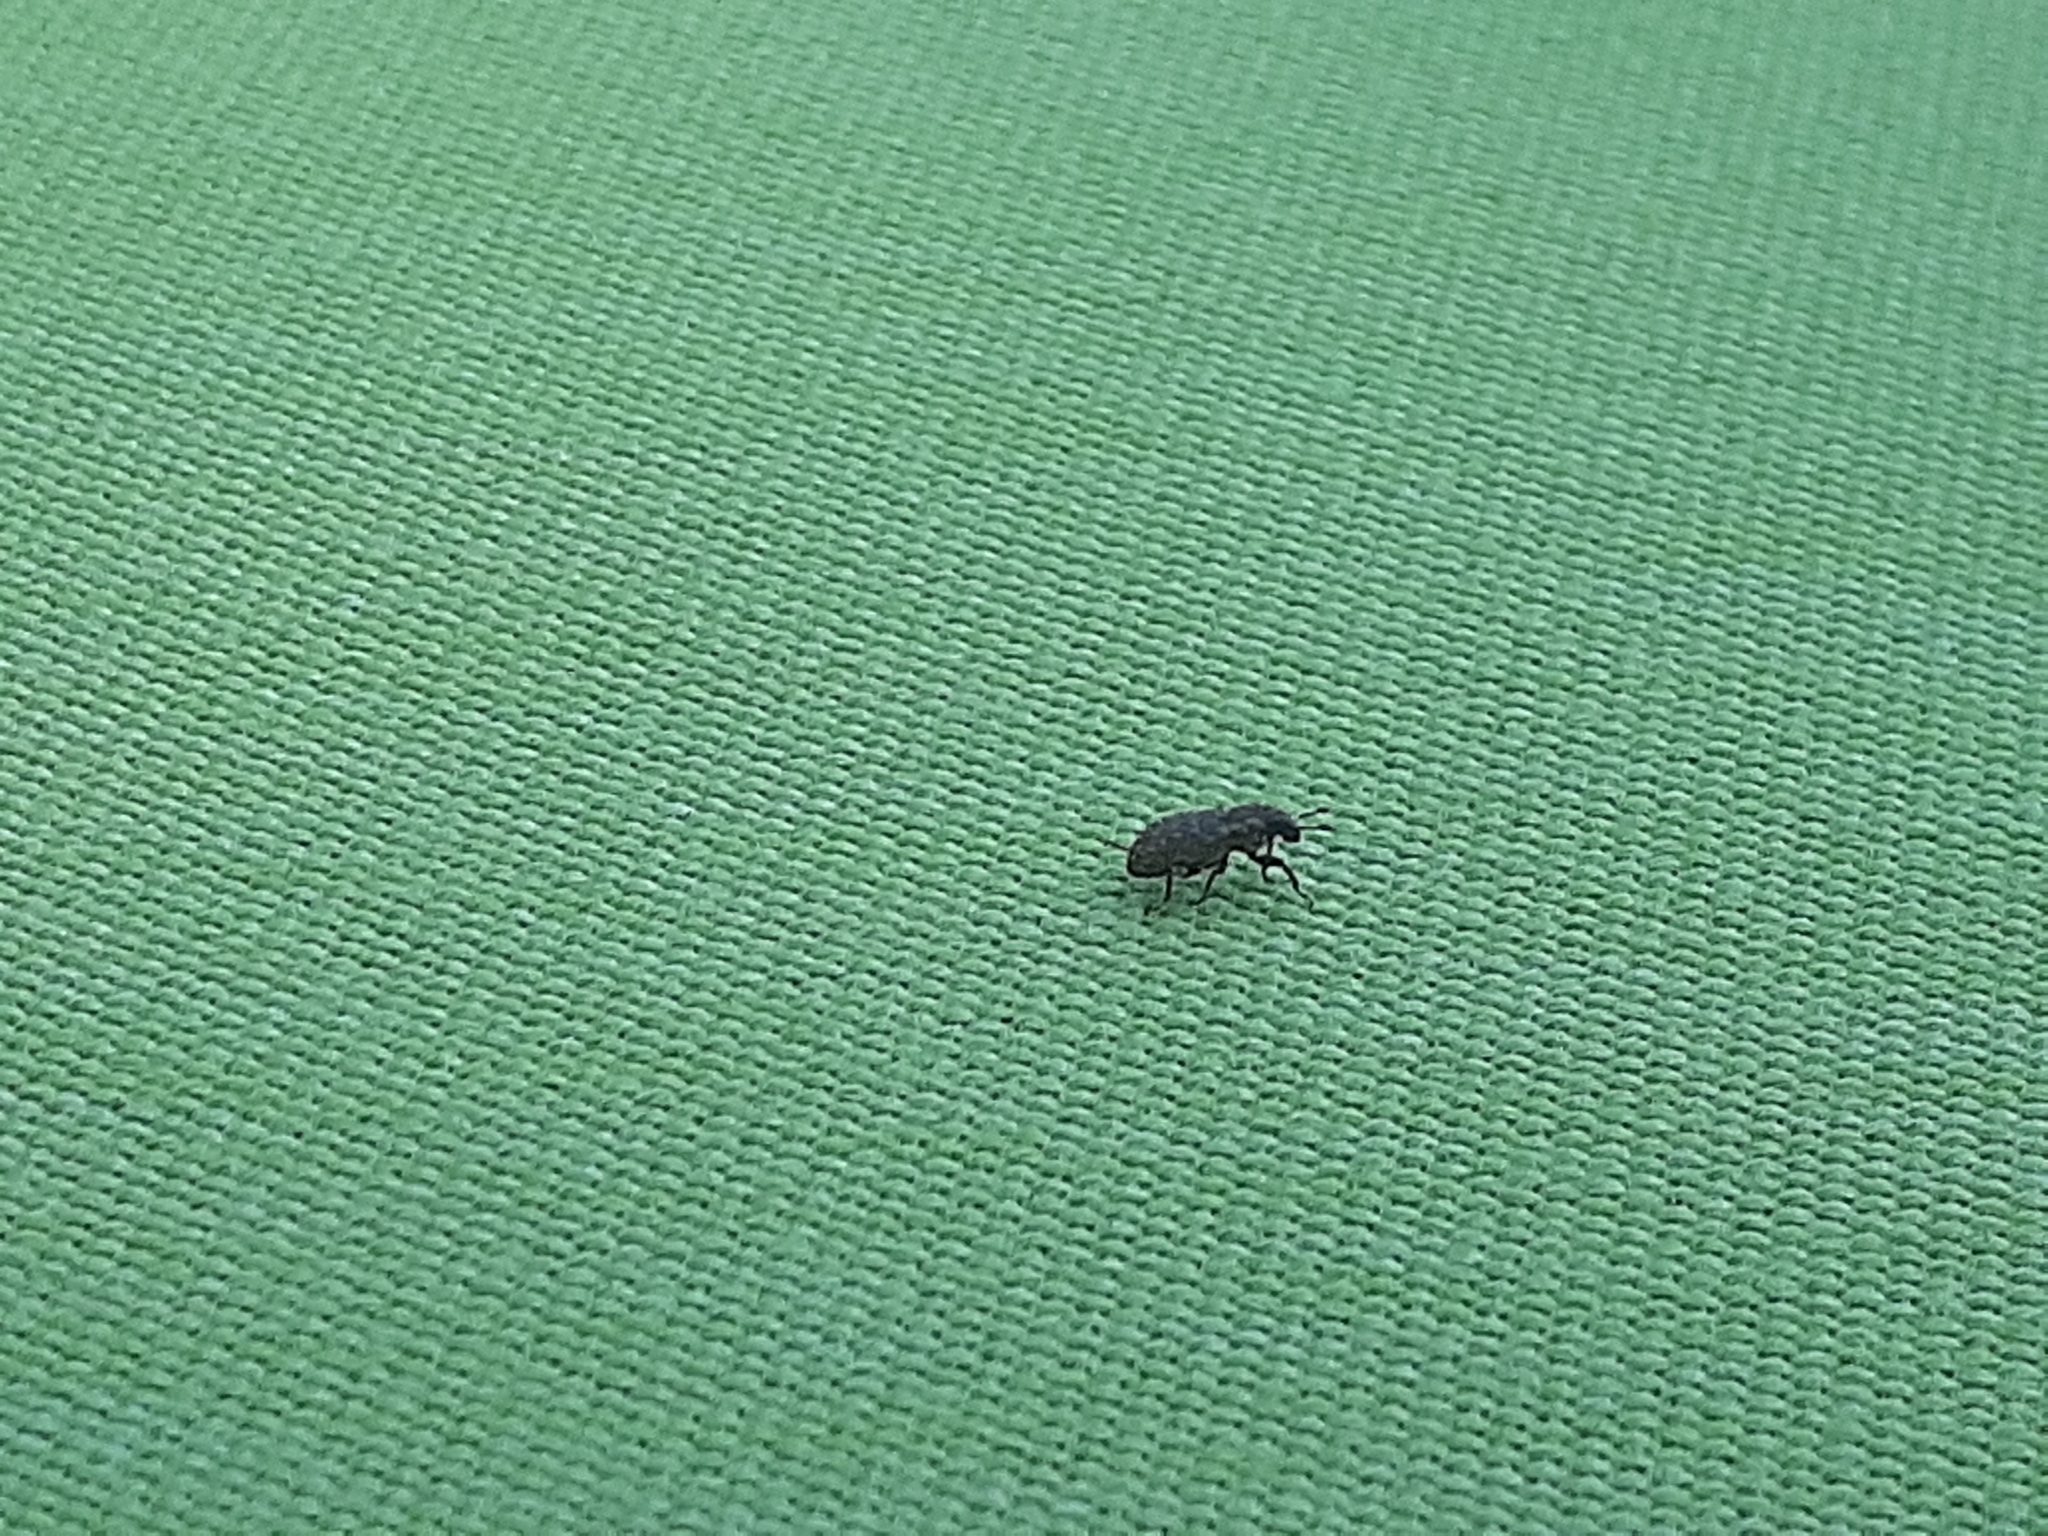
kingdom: Animalia
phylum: Arthropoda
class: Insecta
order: Coleoptera
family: Curculionidae
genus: Sitona
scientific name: Sitona hispidulus
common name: Clover weevil
